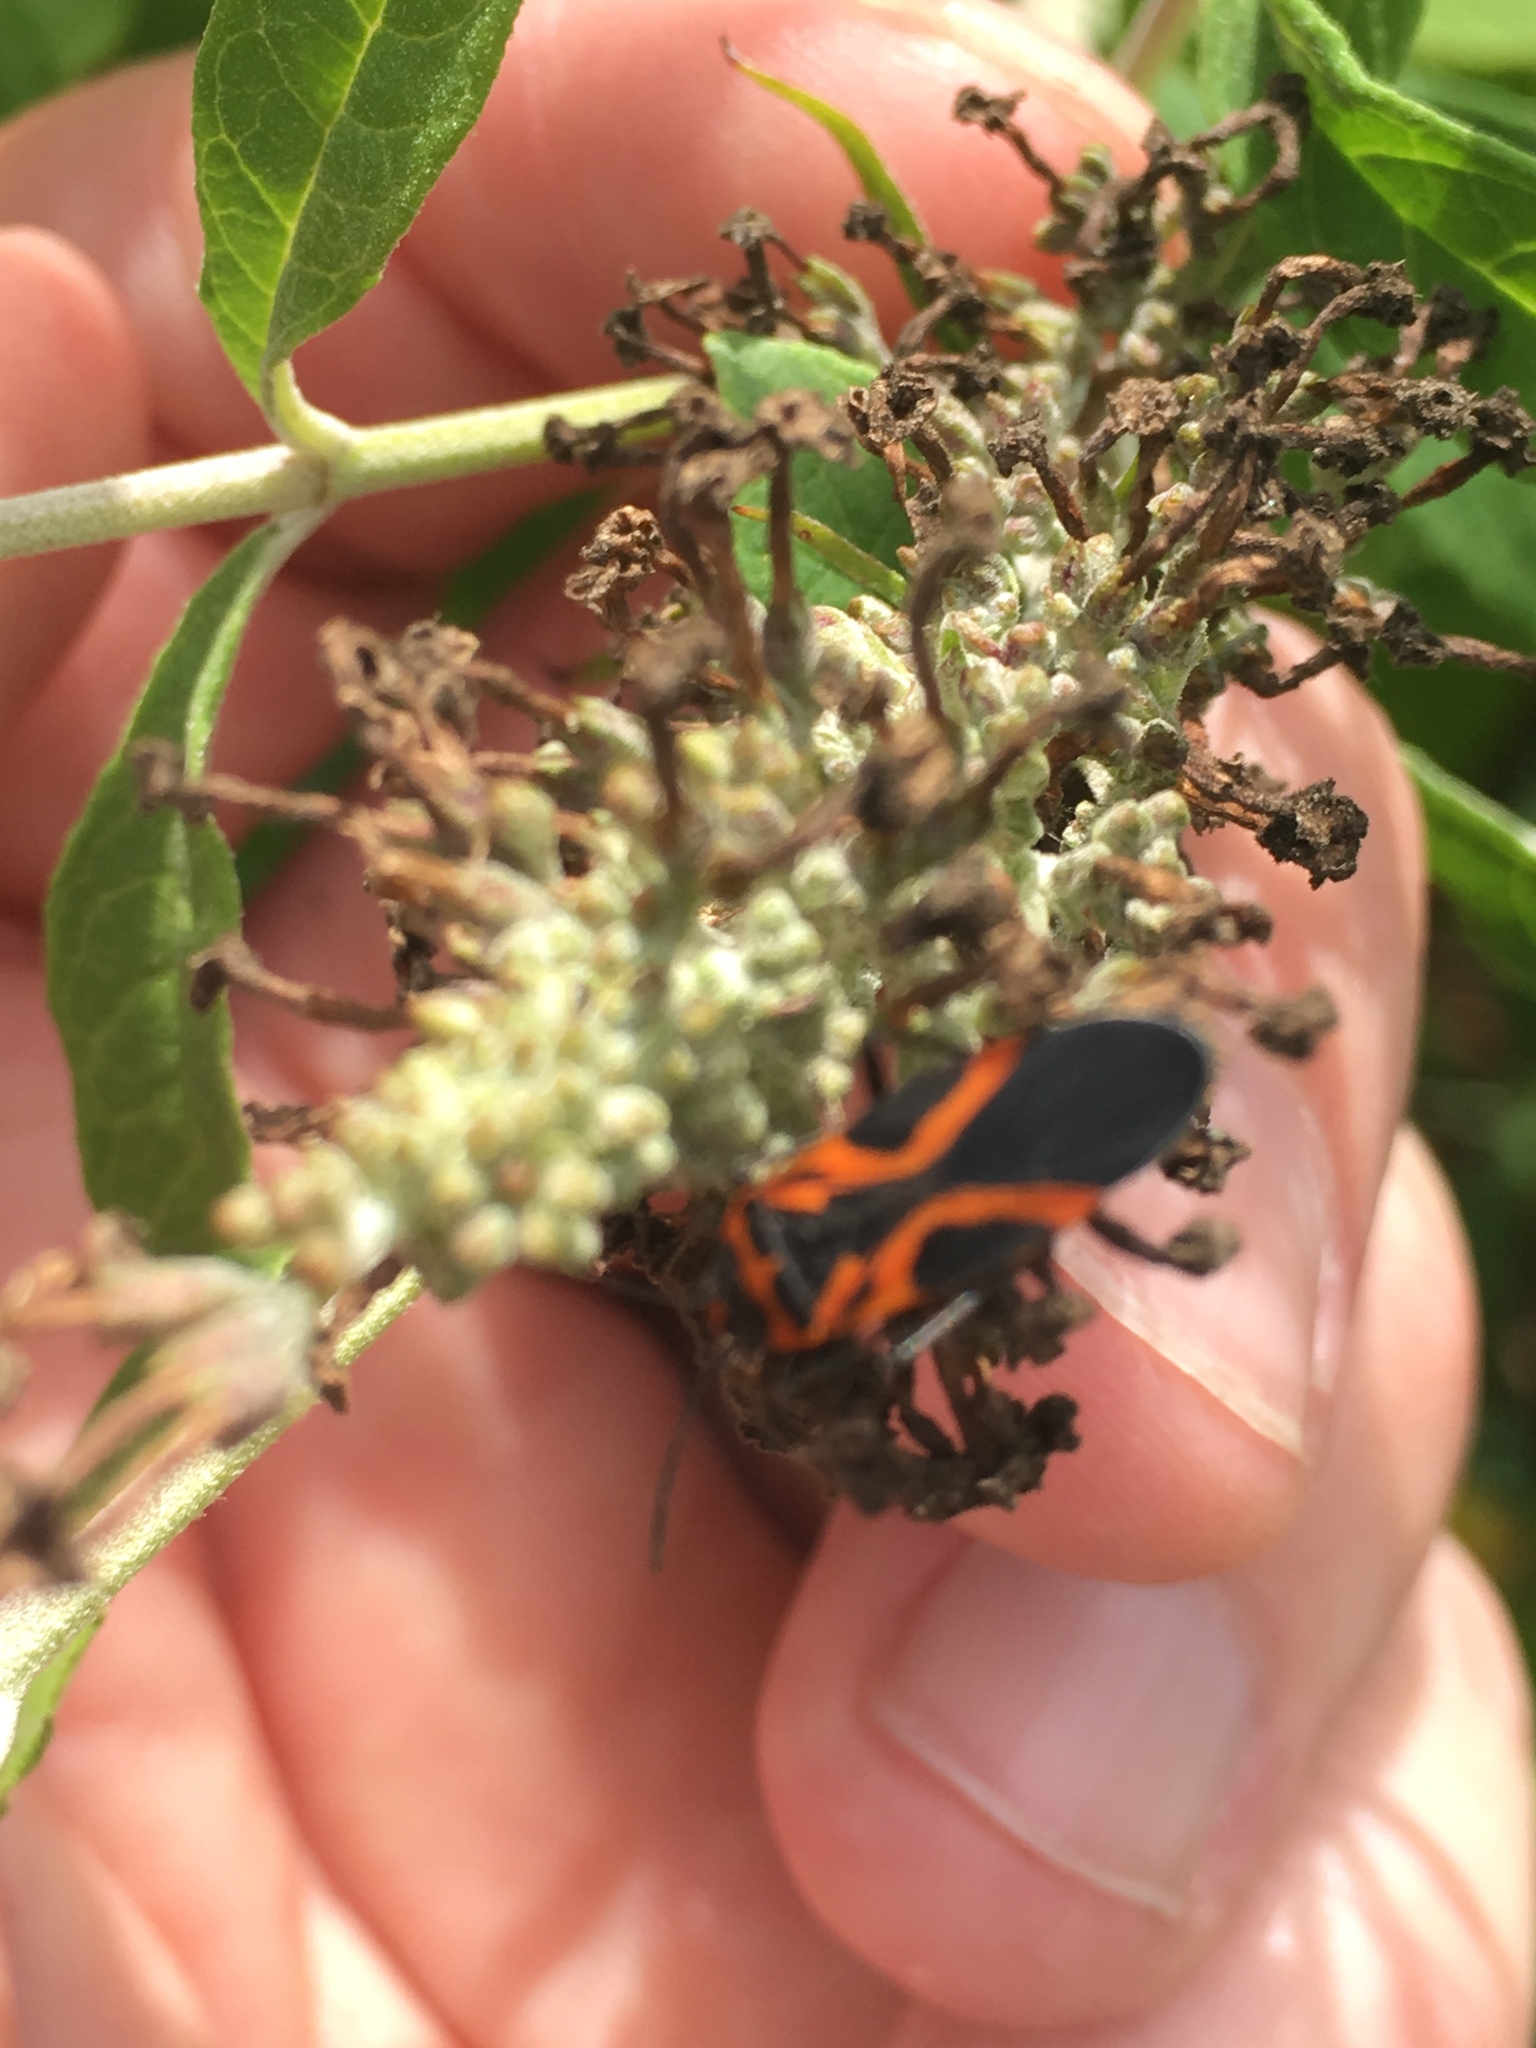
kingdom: Animalia
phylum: Arthropoda
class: Insecta
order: Hemiptera
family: Lygaeidae
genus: Lygaeus
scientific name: Lygaeus turcicus
